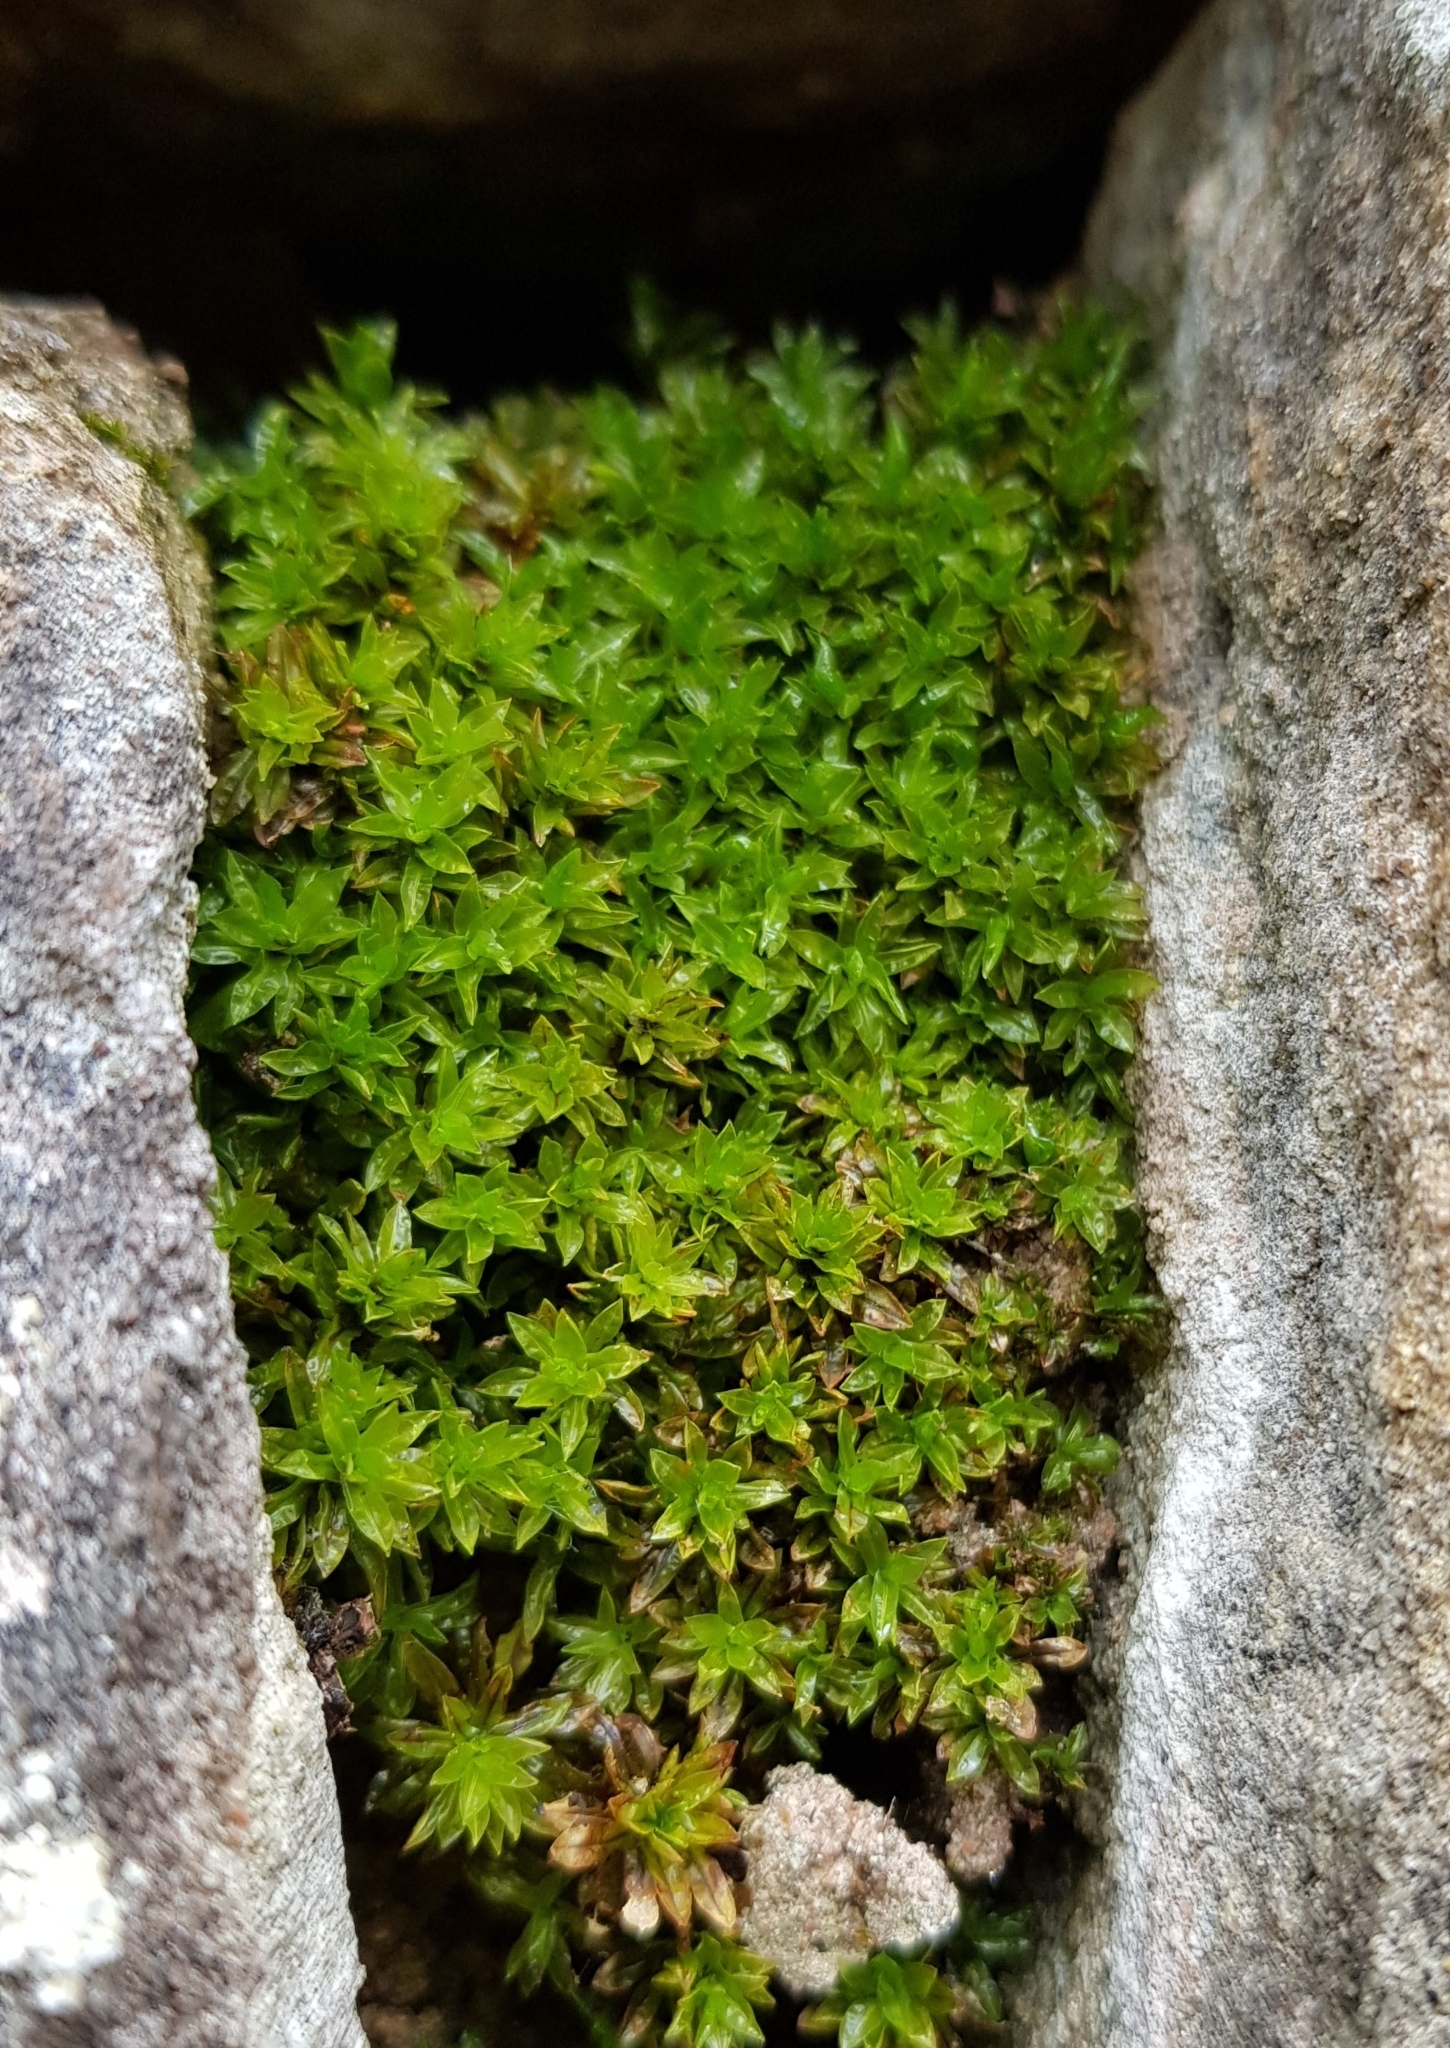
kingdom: Plantae
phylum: Bryophyta
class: Bryopsida
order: Encalyptales
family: Encalyptaceae
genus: Encalypta
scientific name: Encalypta streptocarpa
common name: Spiral extinguisher-moss
